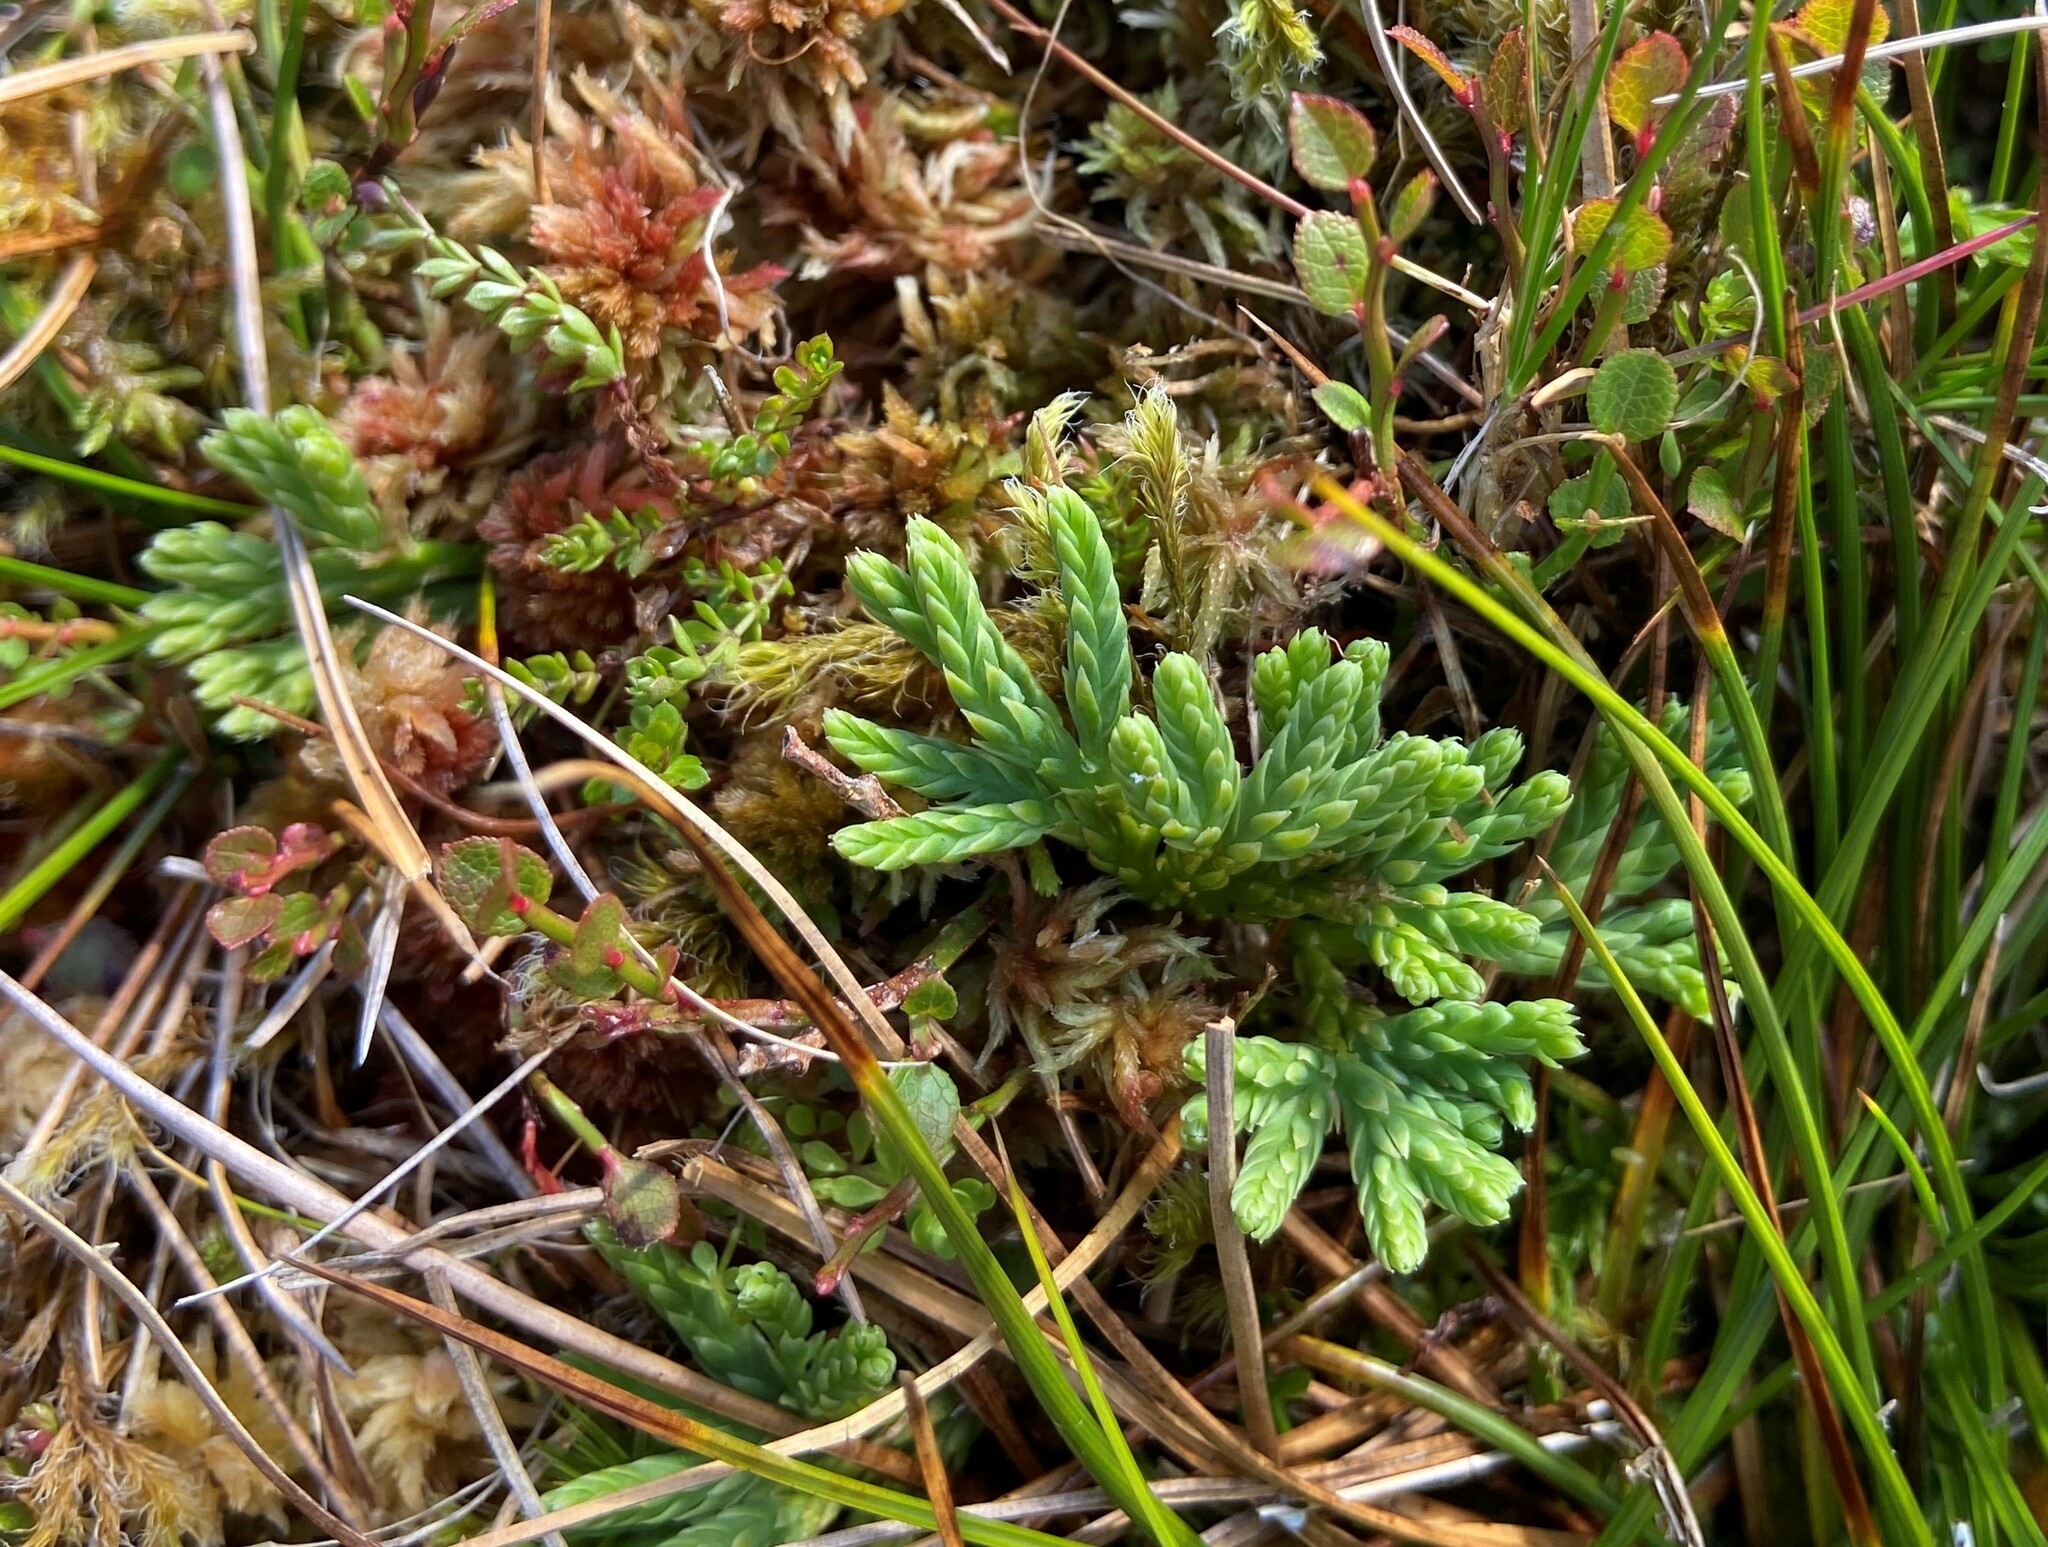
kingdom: Plantae
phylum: Tracheophyta
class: Lycopodiopsida
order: Lycopodiales
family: Lycopodiaceae
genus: Diphasiastrum
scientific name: Diphasiastrum alpinum
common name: Alpine clubmoss
